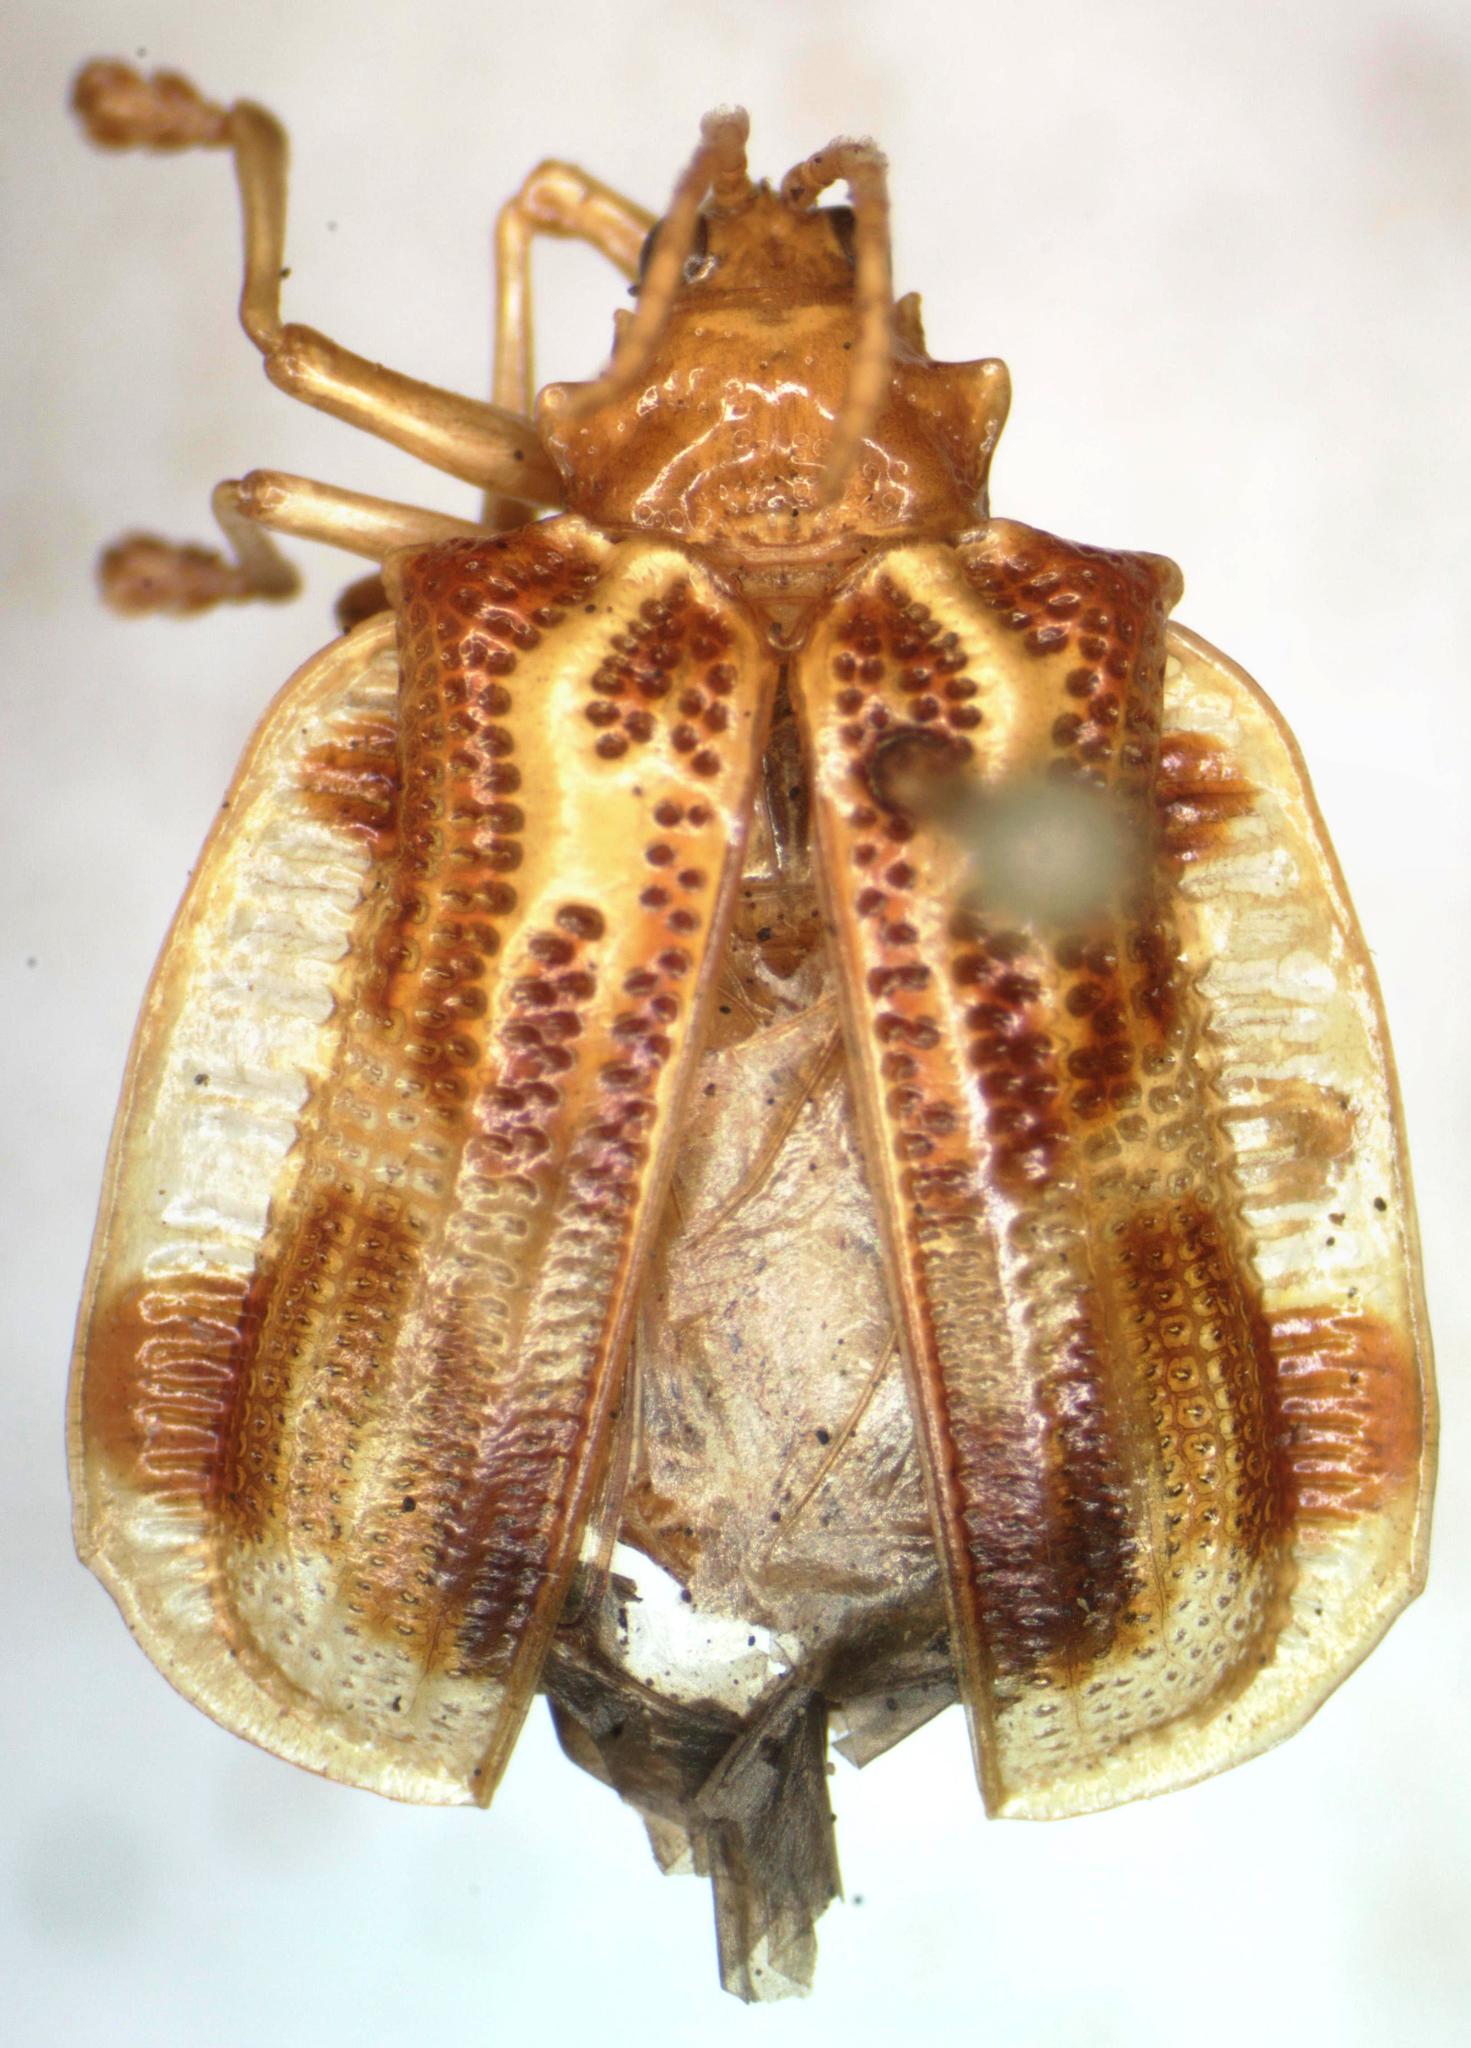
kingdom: Animalia
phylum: Arthropoda
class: Insecta
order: Coleoptera
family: Chrysomelidae
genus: Sceloenopla
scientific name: Sceloenopla godmani
